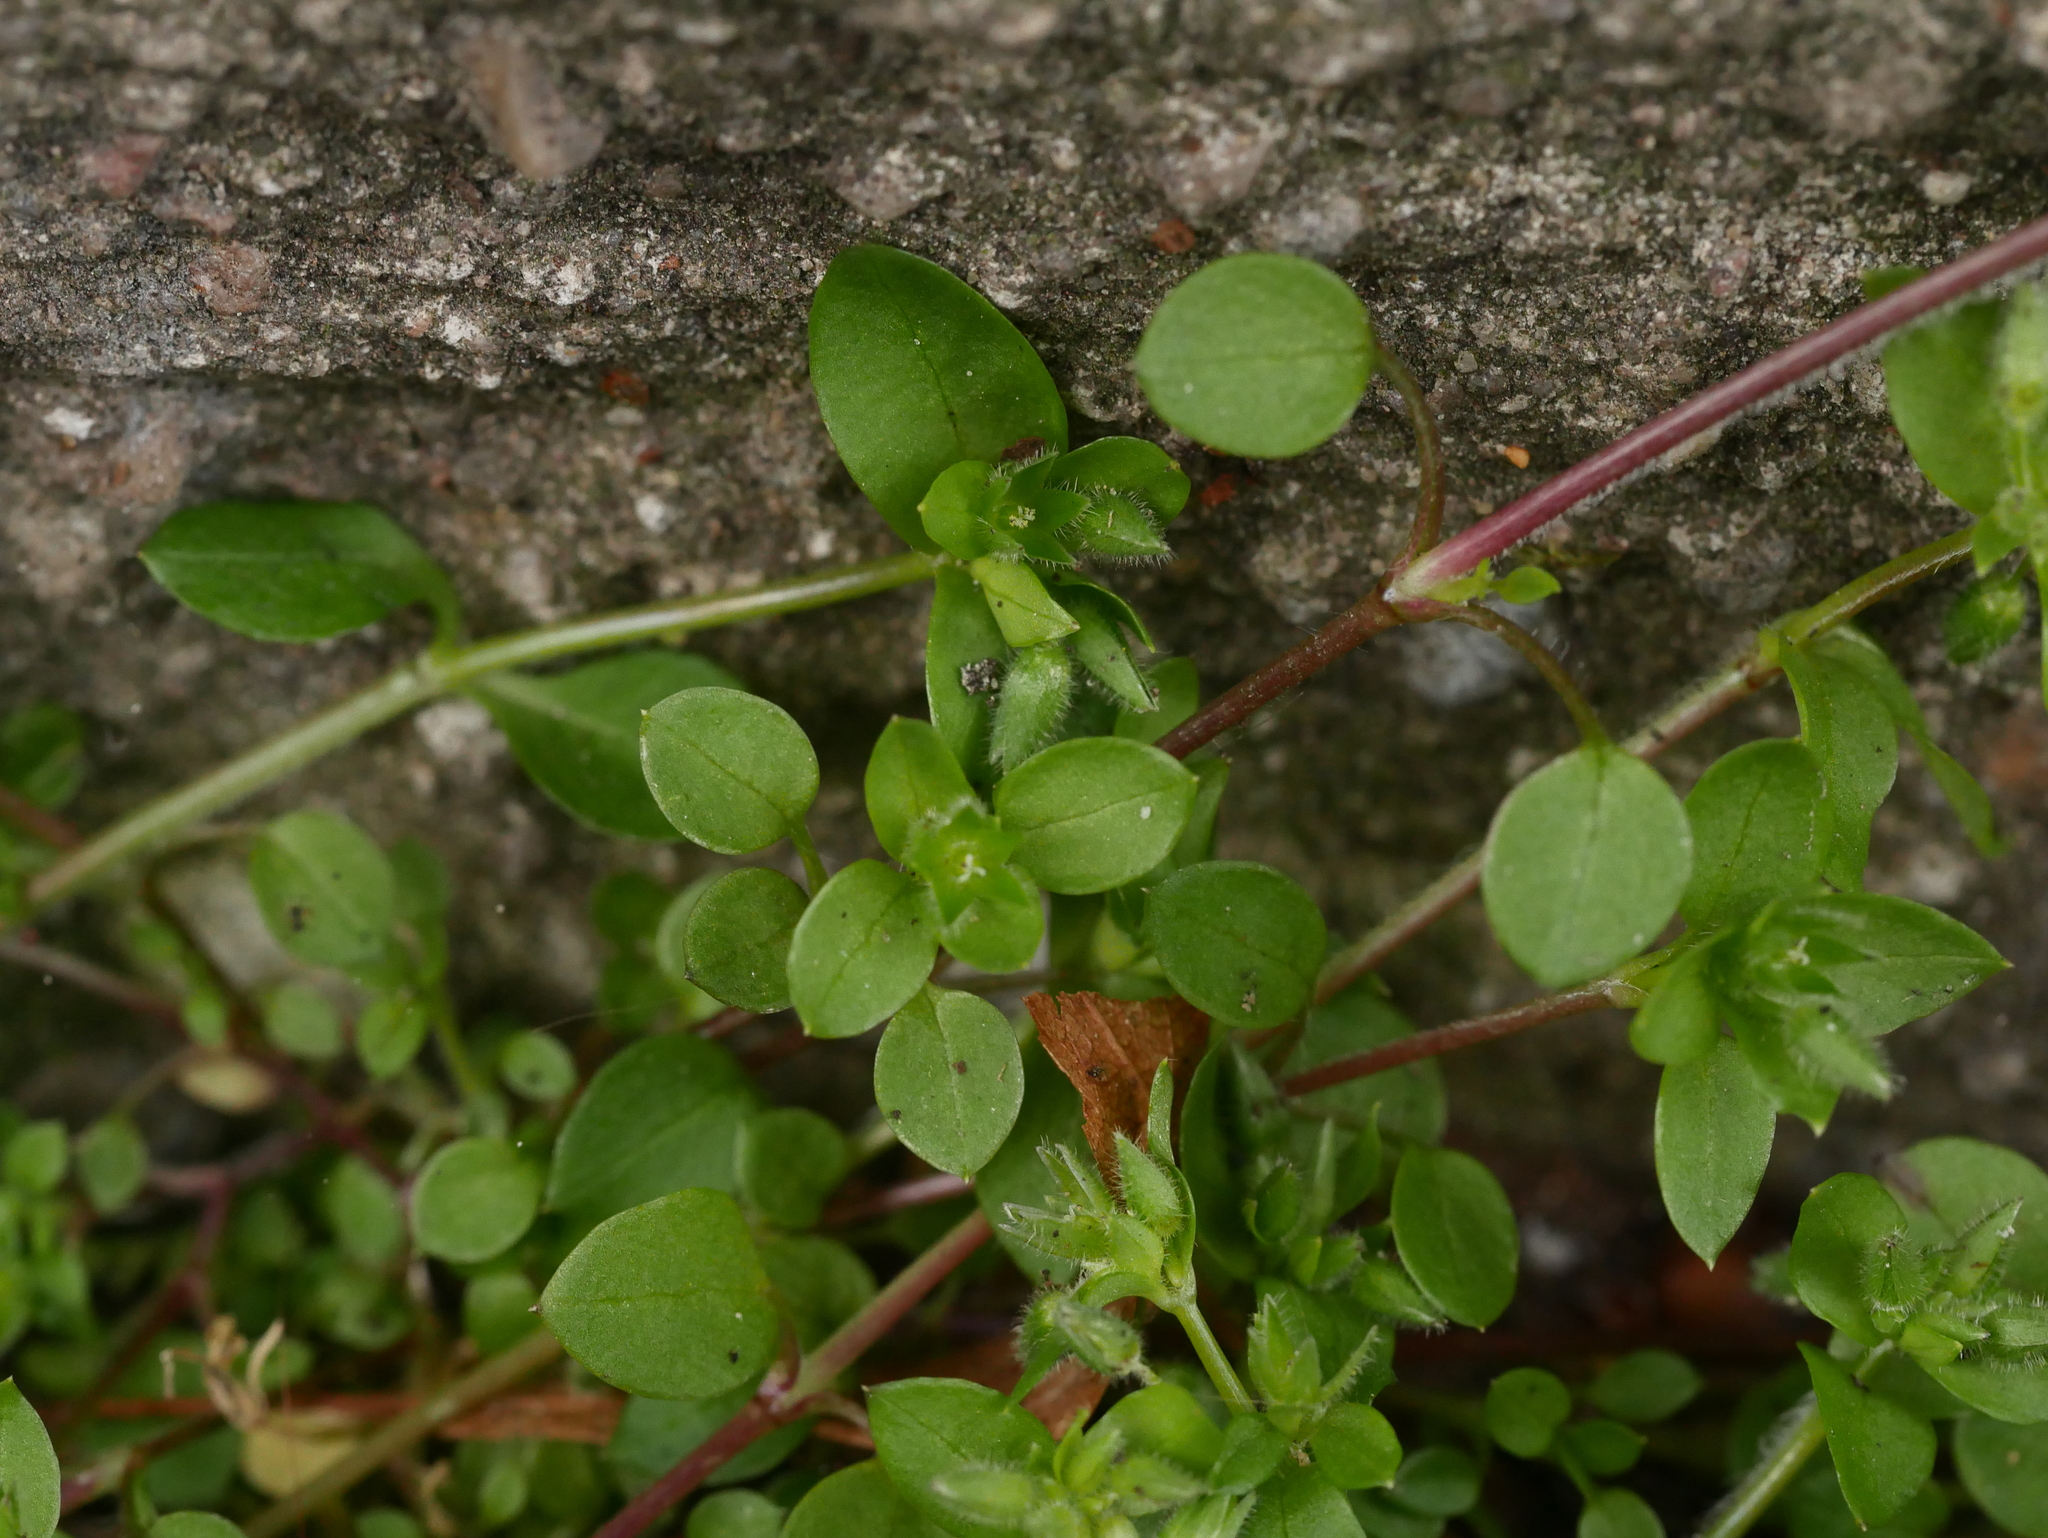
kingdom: Plantae
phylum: Tracheophyta
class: Magnoliopsida
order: Caryophyllales
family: Caryophyllaceae
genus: Stellaria
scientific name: Stellaria media
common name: Common chickweed
